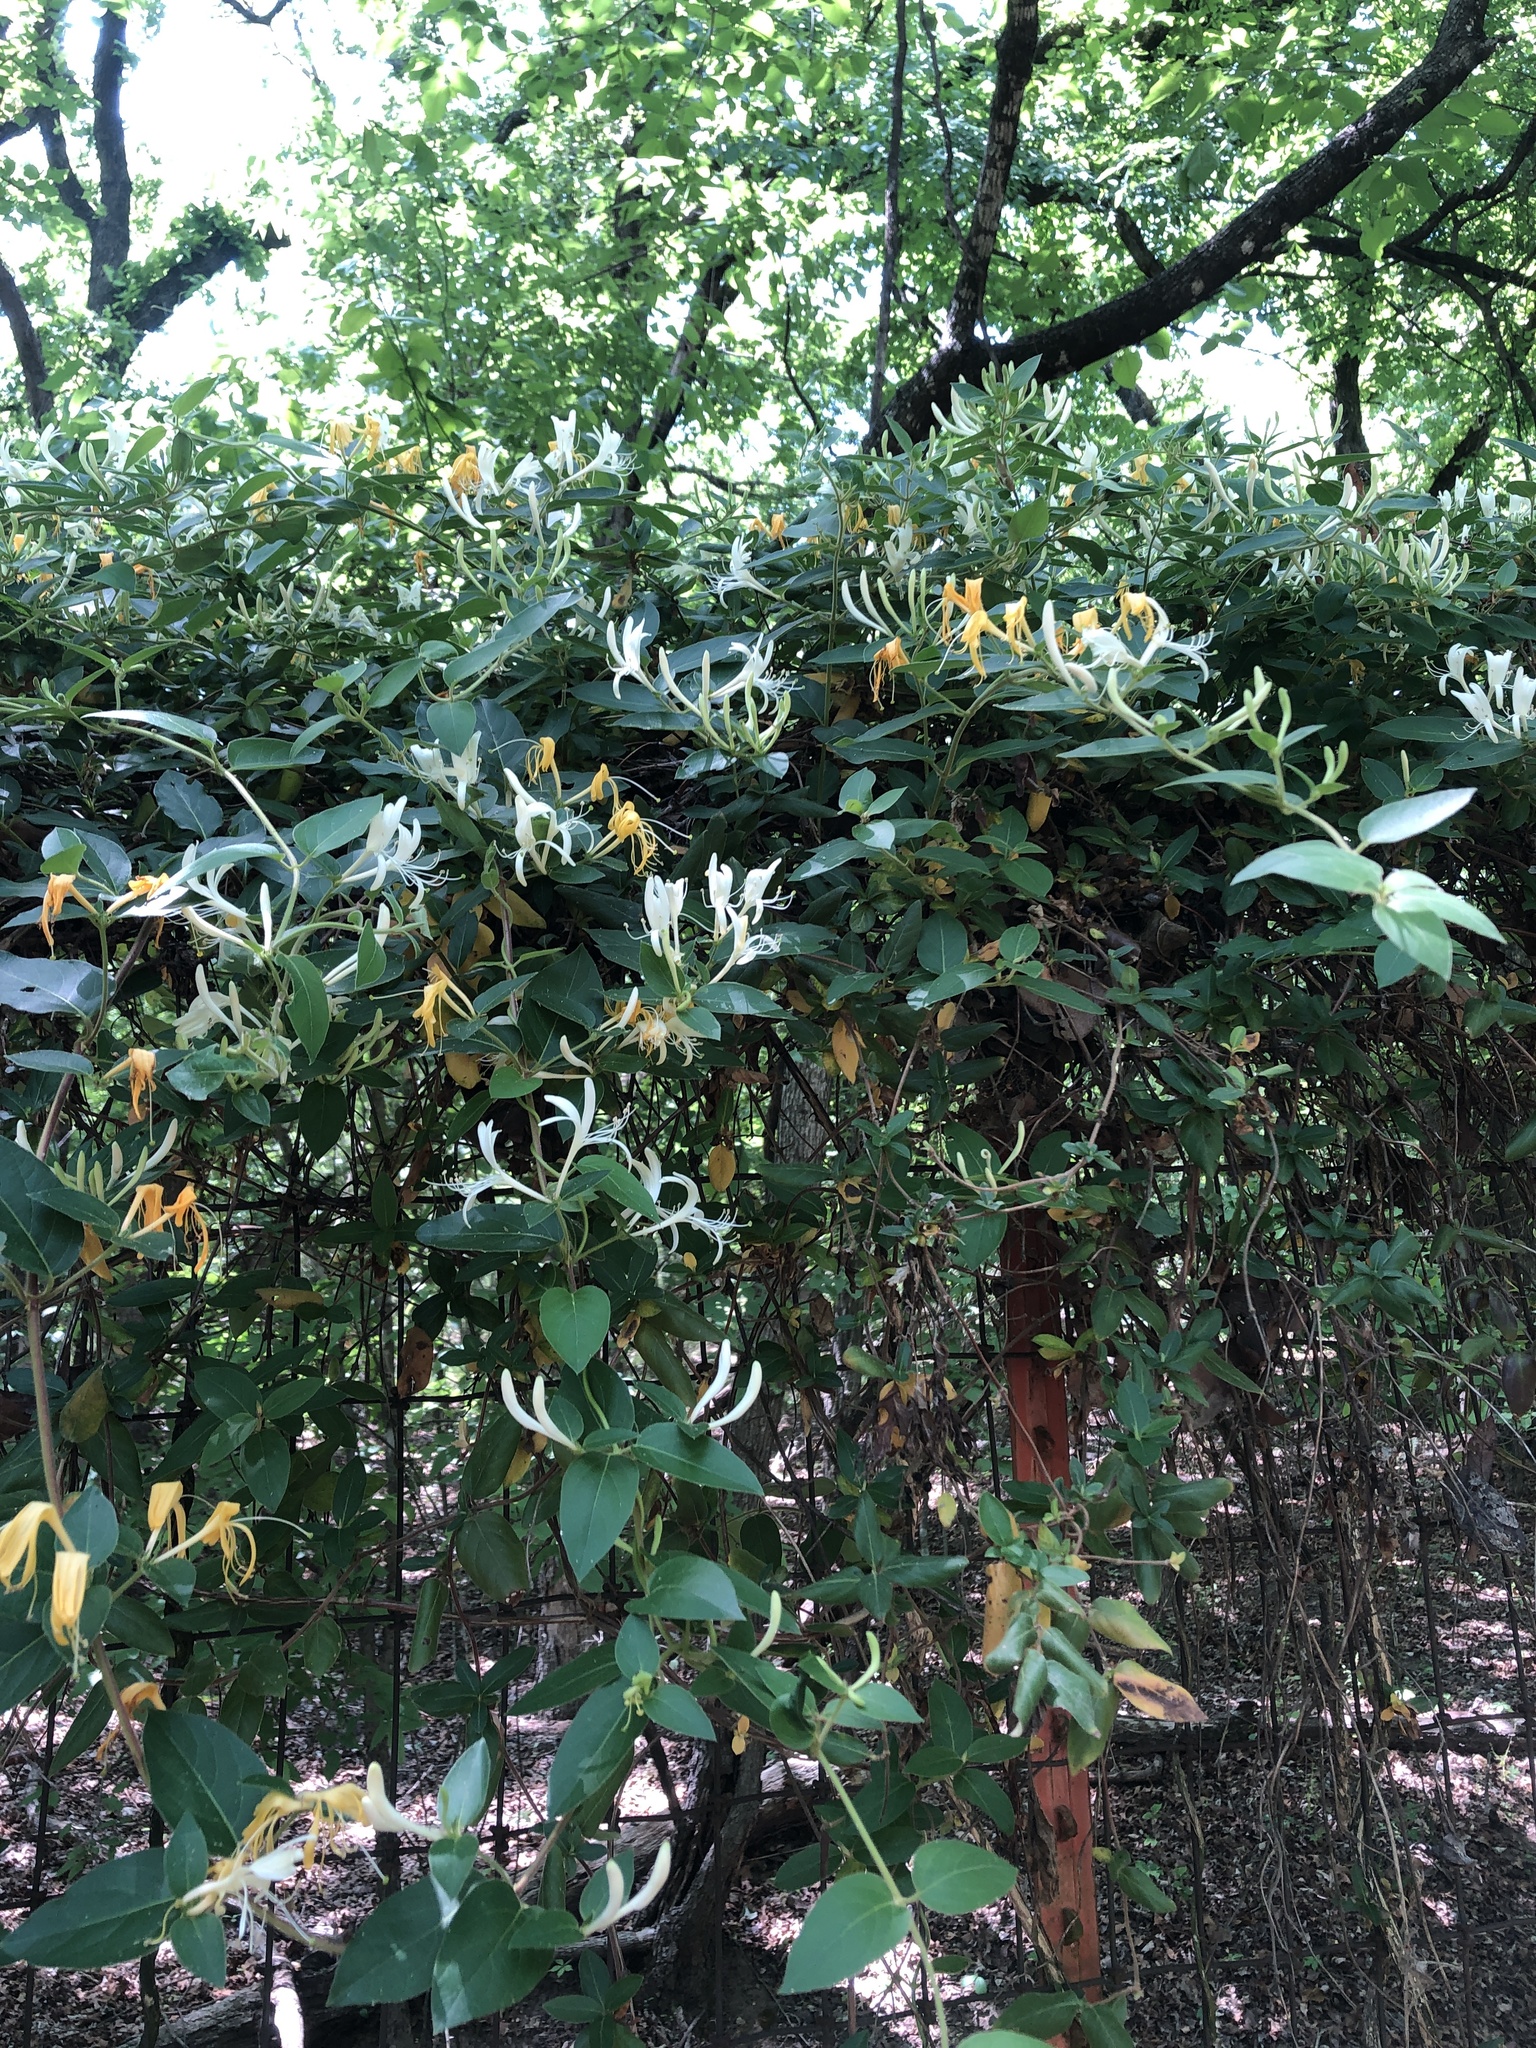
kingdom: Plantae
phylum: Tracheophyta
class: Magnoliopsida
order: Dipsacales
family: Caprifoliaceae
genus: Lonicera
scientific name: Lonicera japonica
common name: Japanese honeysuckle
